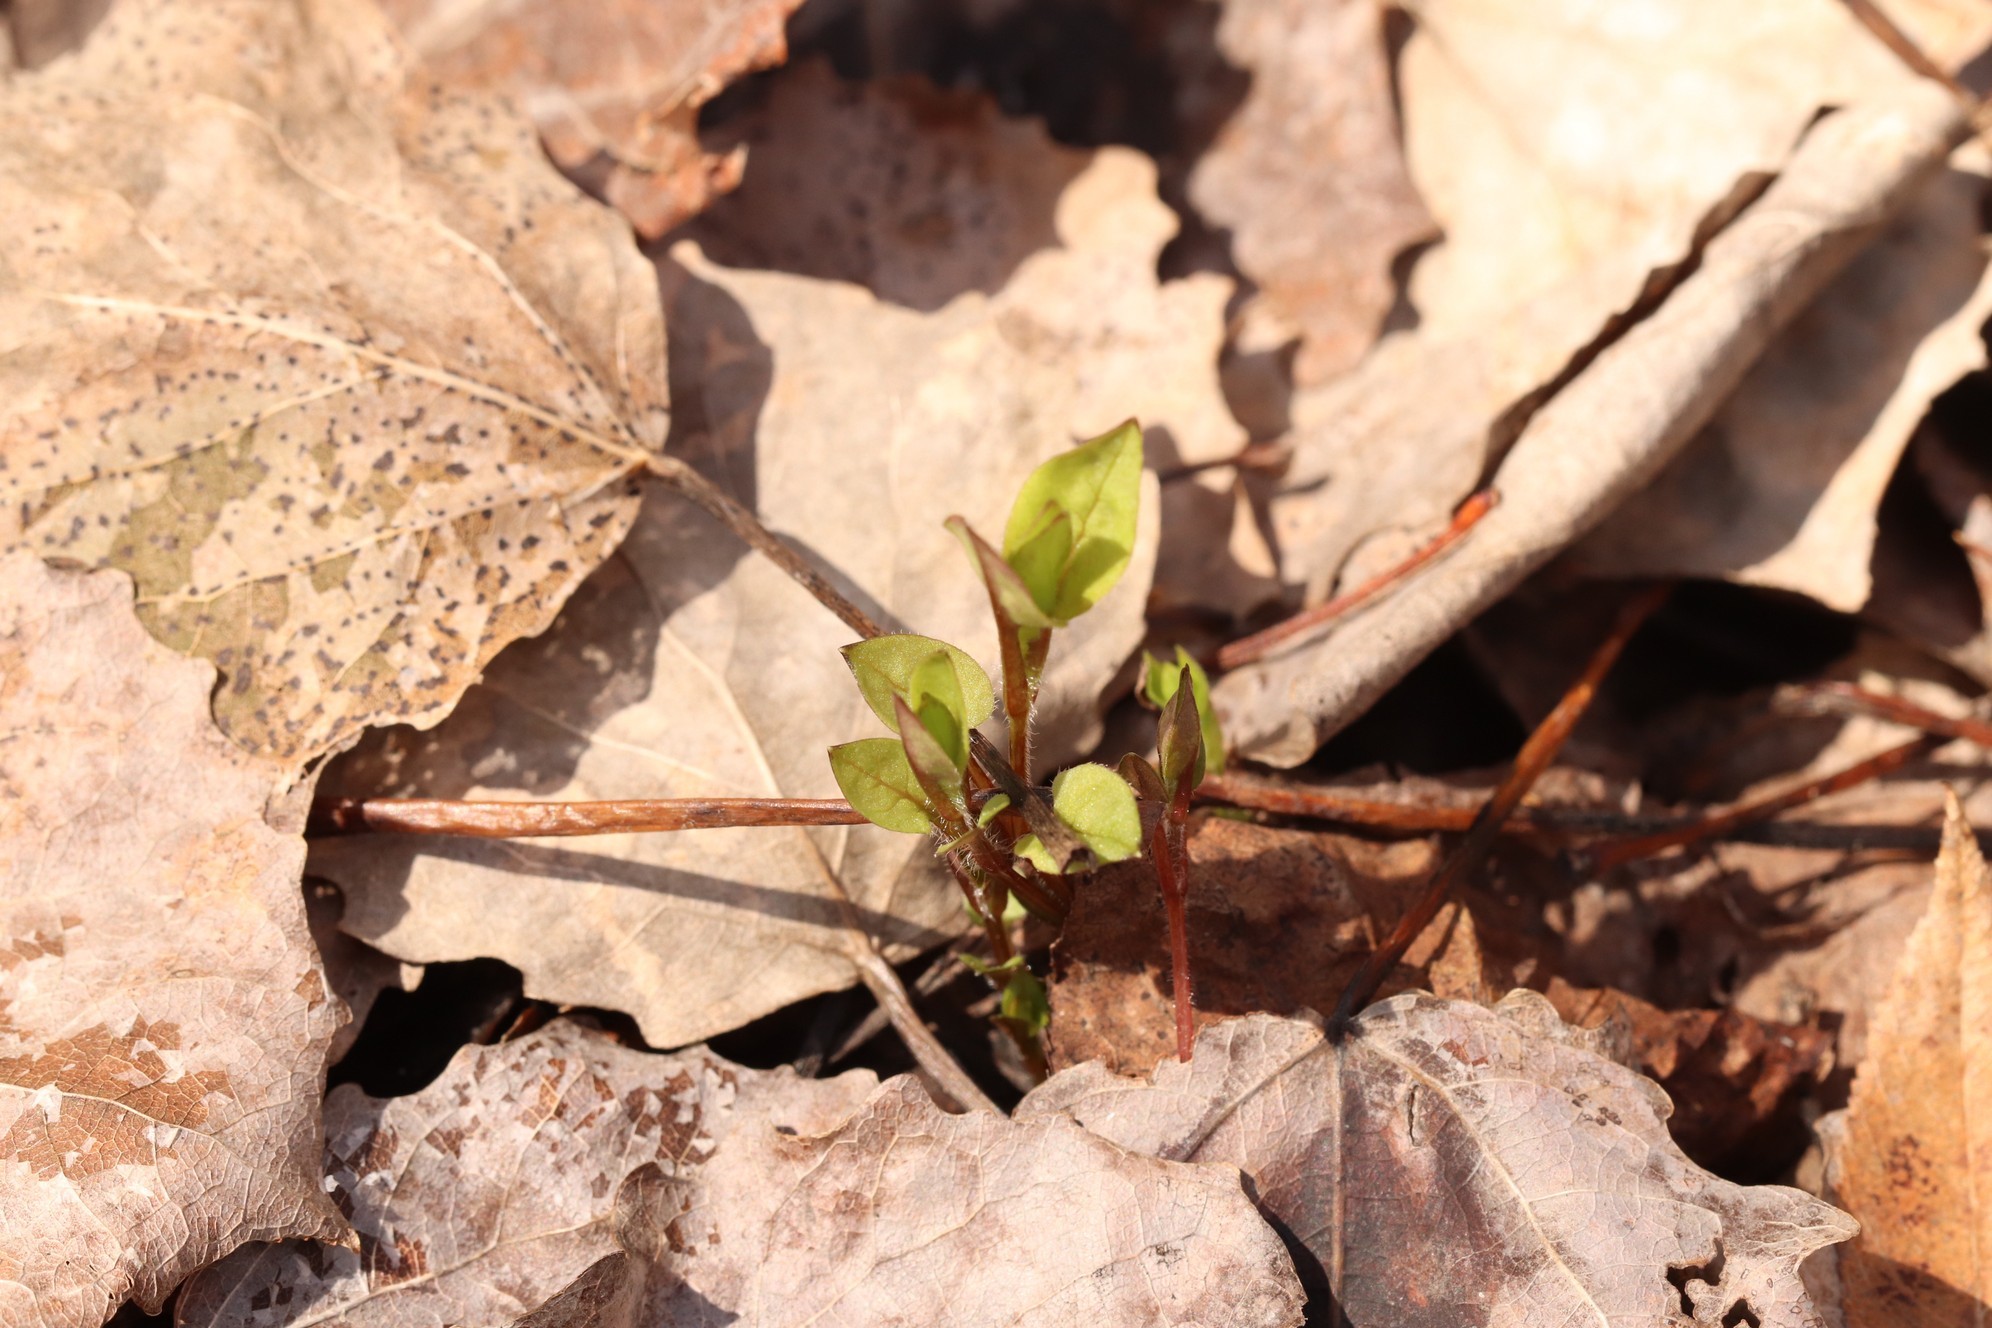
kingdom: Plantae
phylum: Tracheophyta
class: Magnoliopsida
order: Caryophyllales
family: Caryophyllaceae
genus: Stellaria
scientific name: Stellaria bungeana
